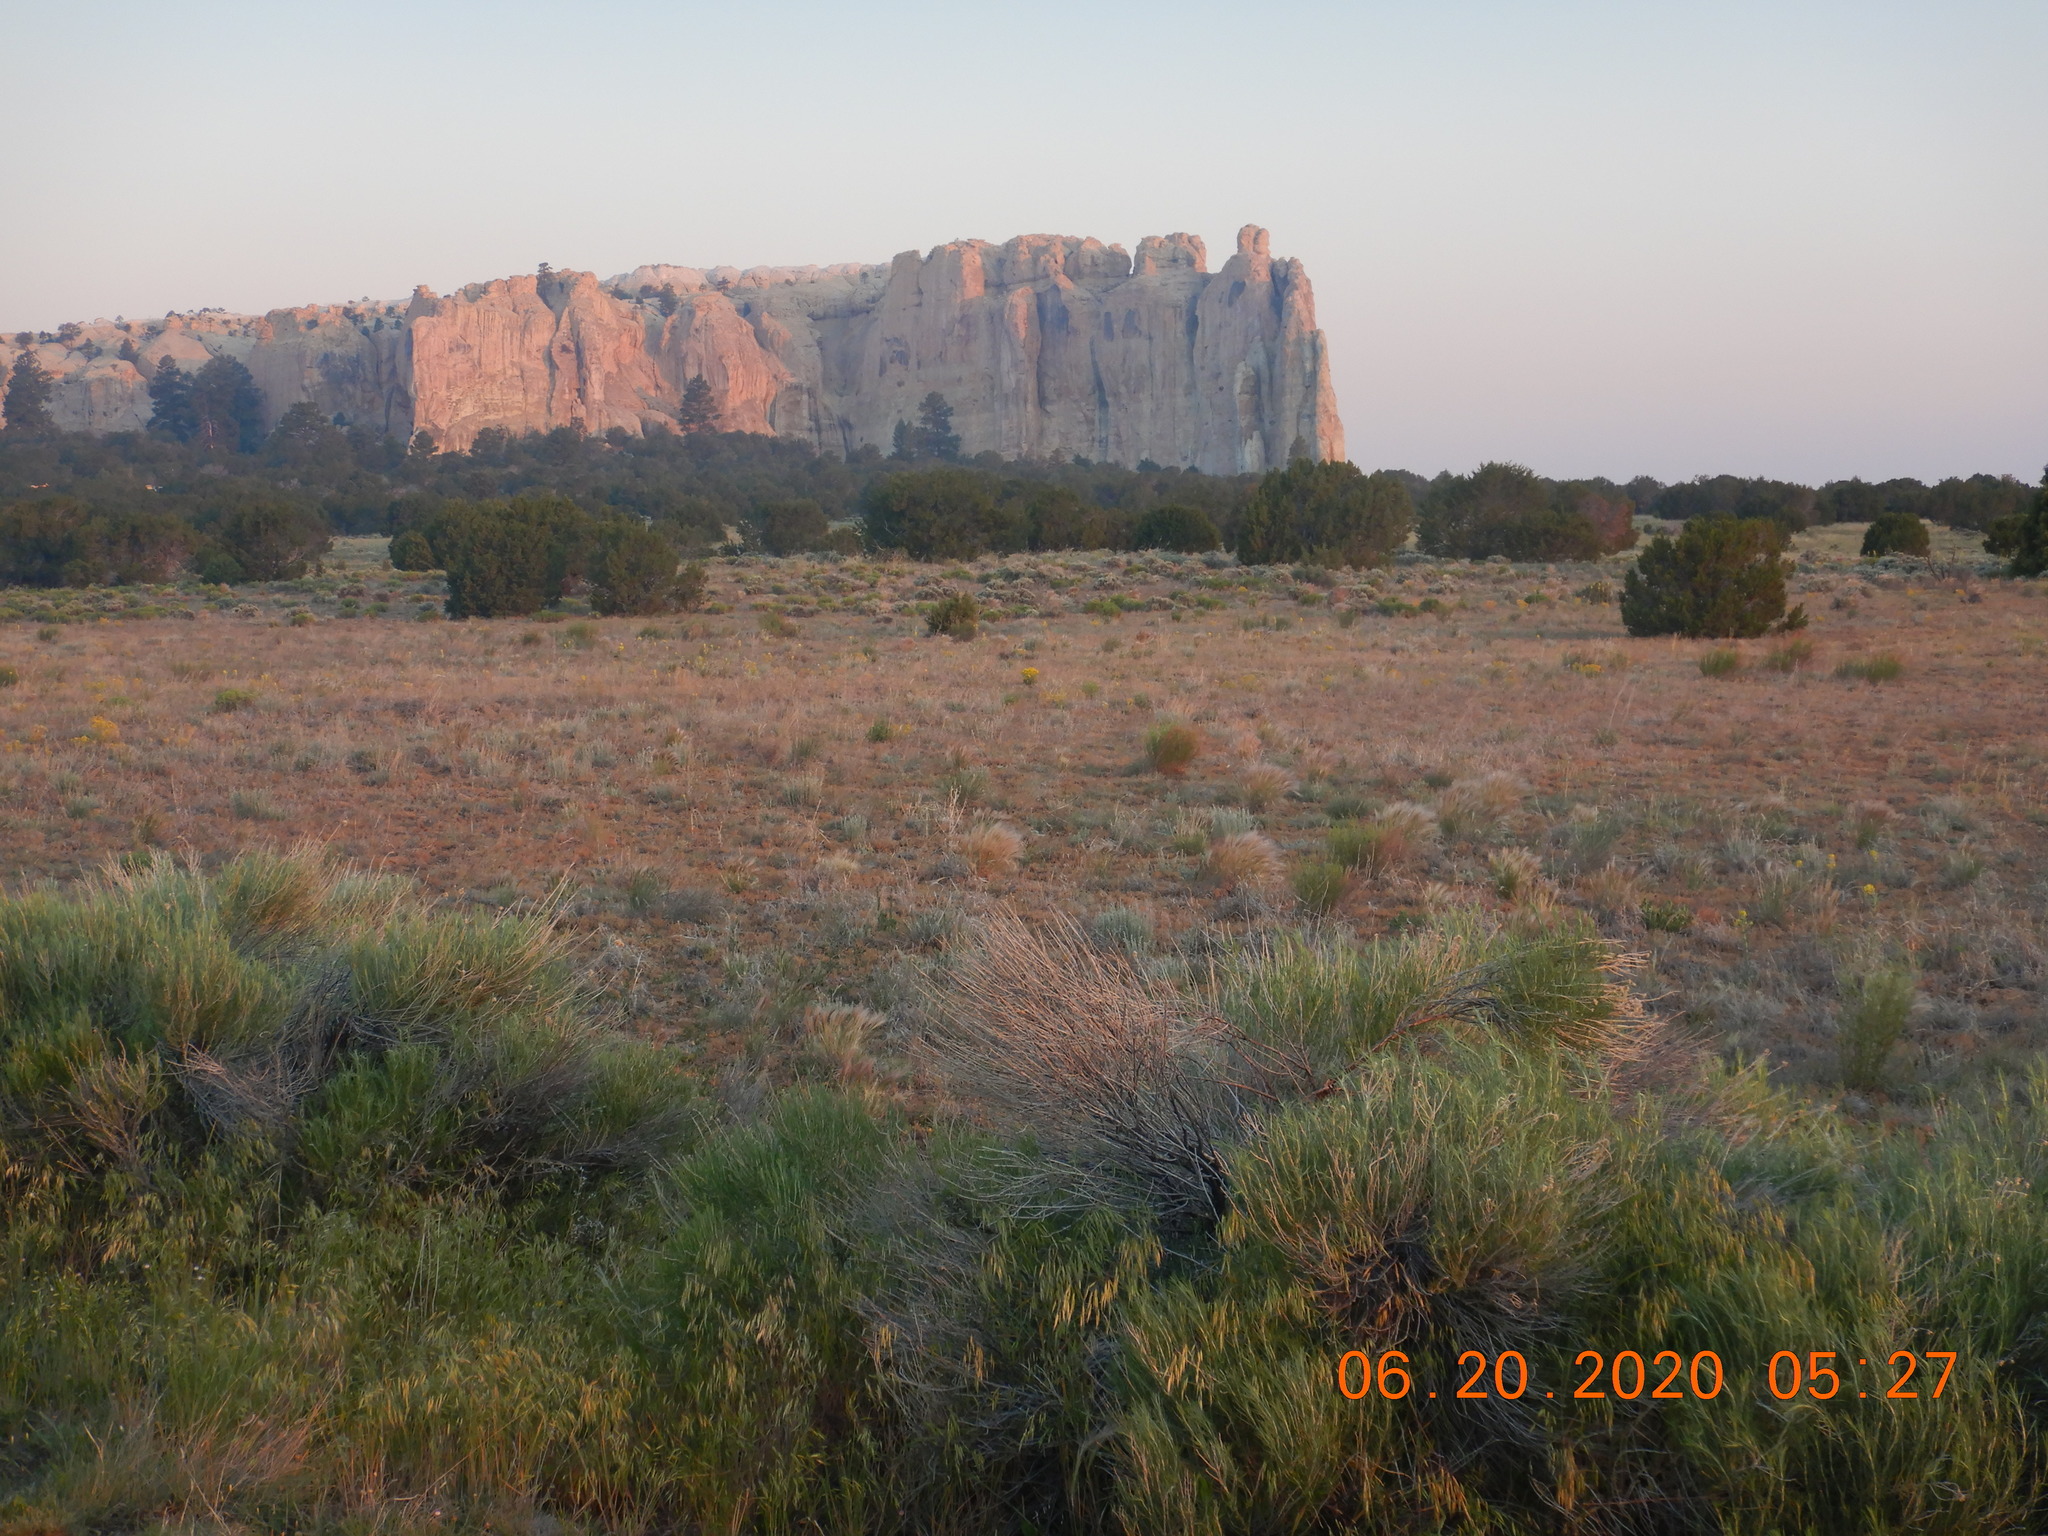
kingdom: Plantae
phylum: Tracheophyta
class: Liliopsida
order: Poales
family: Poaceae
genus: Bromus
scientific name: Bromus tectorum
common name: Cheatgrass
